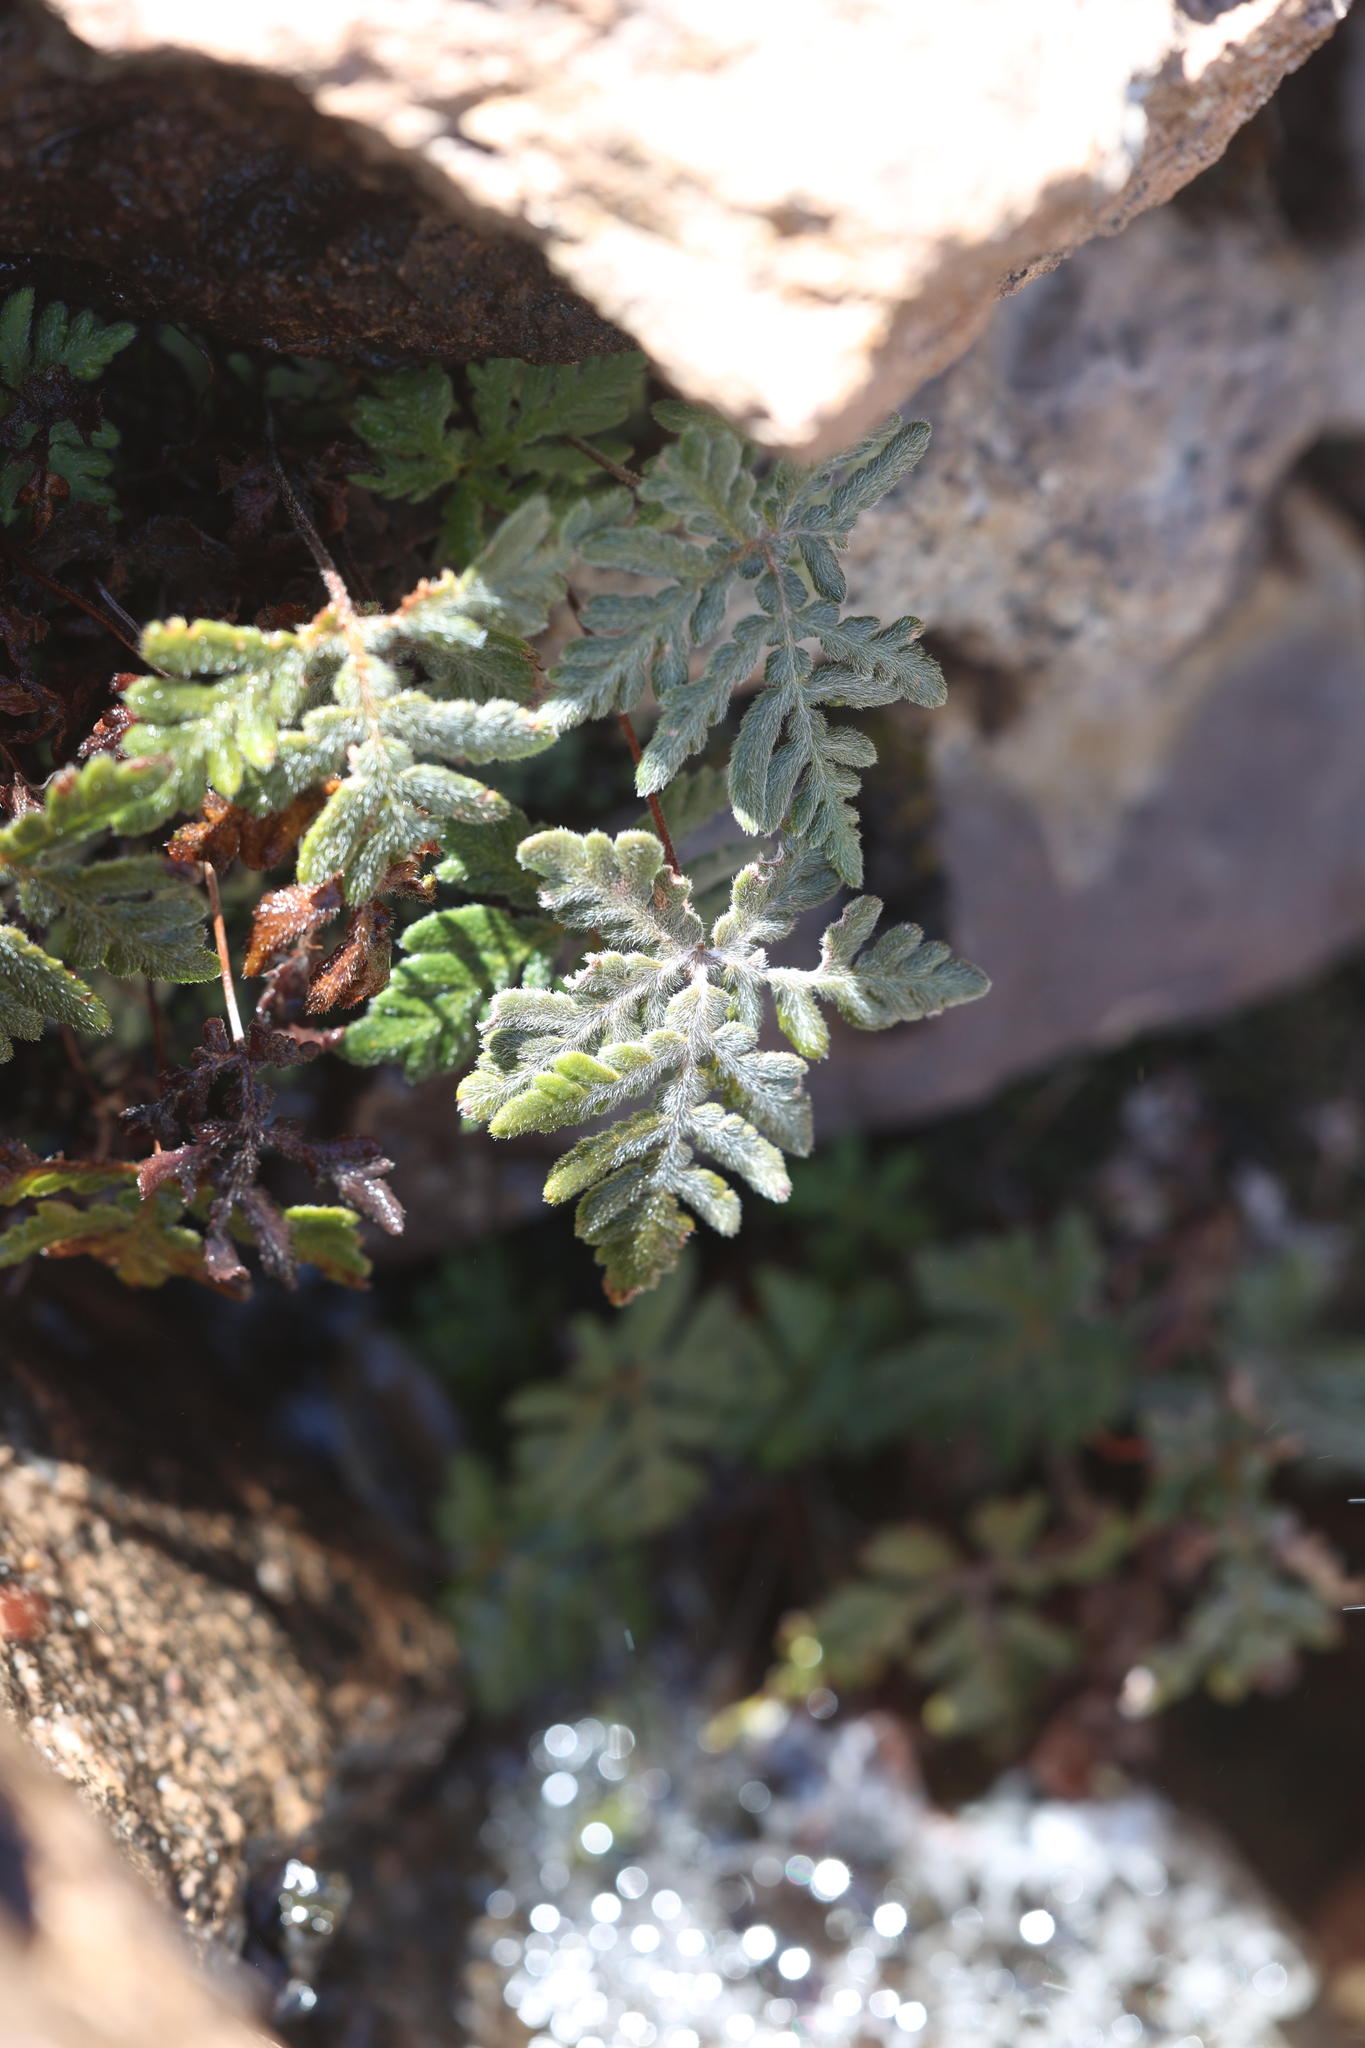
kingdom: Plantae
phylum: Tracheophyta
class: Polypodiopsida
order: Polypodiales
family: Pteridaceae
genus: Bommeria
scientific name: Bommeria hispida
